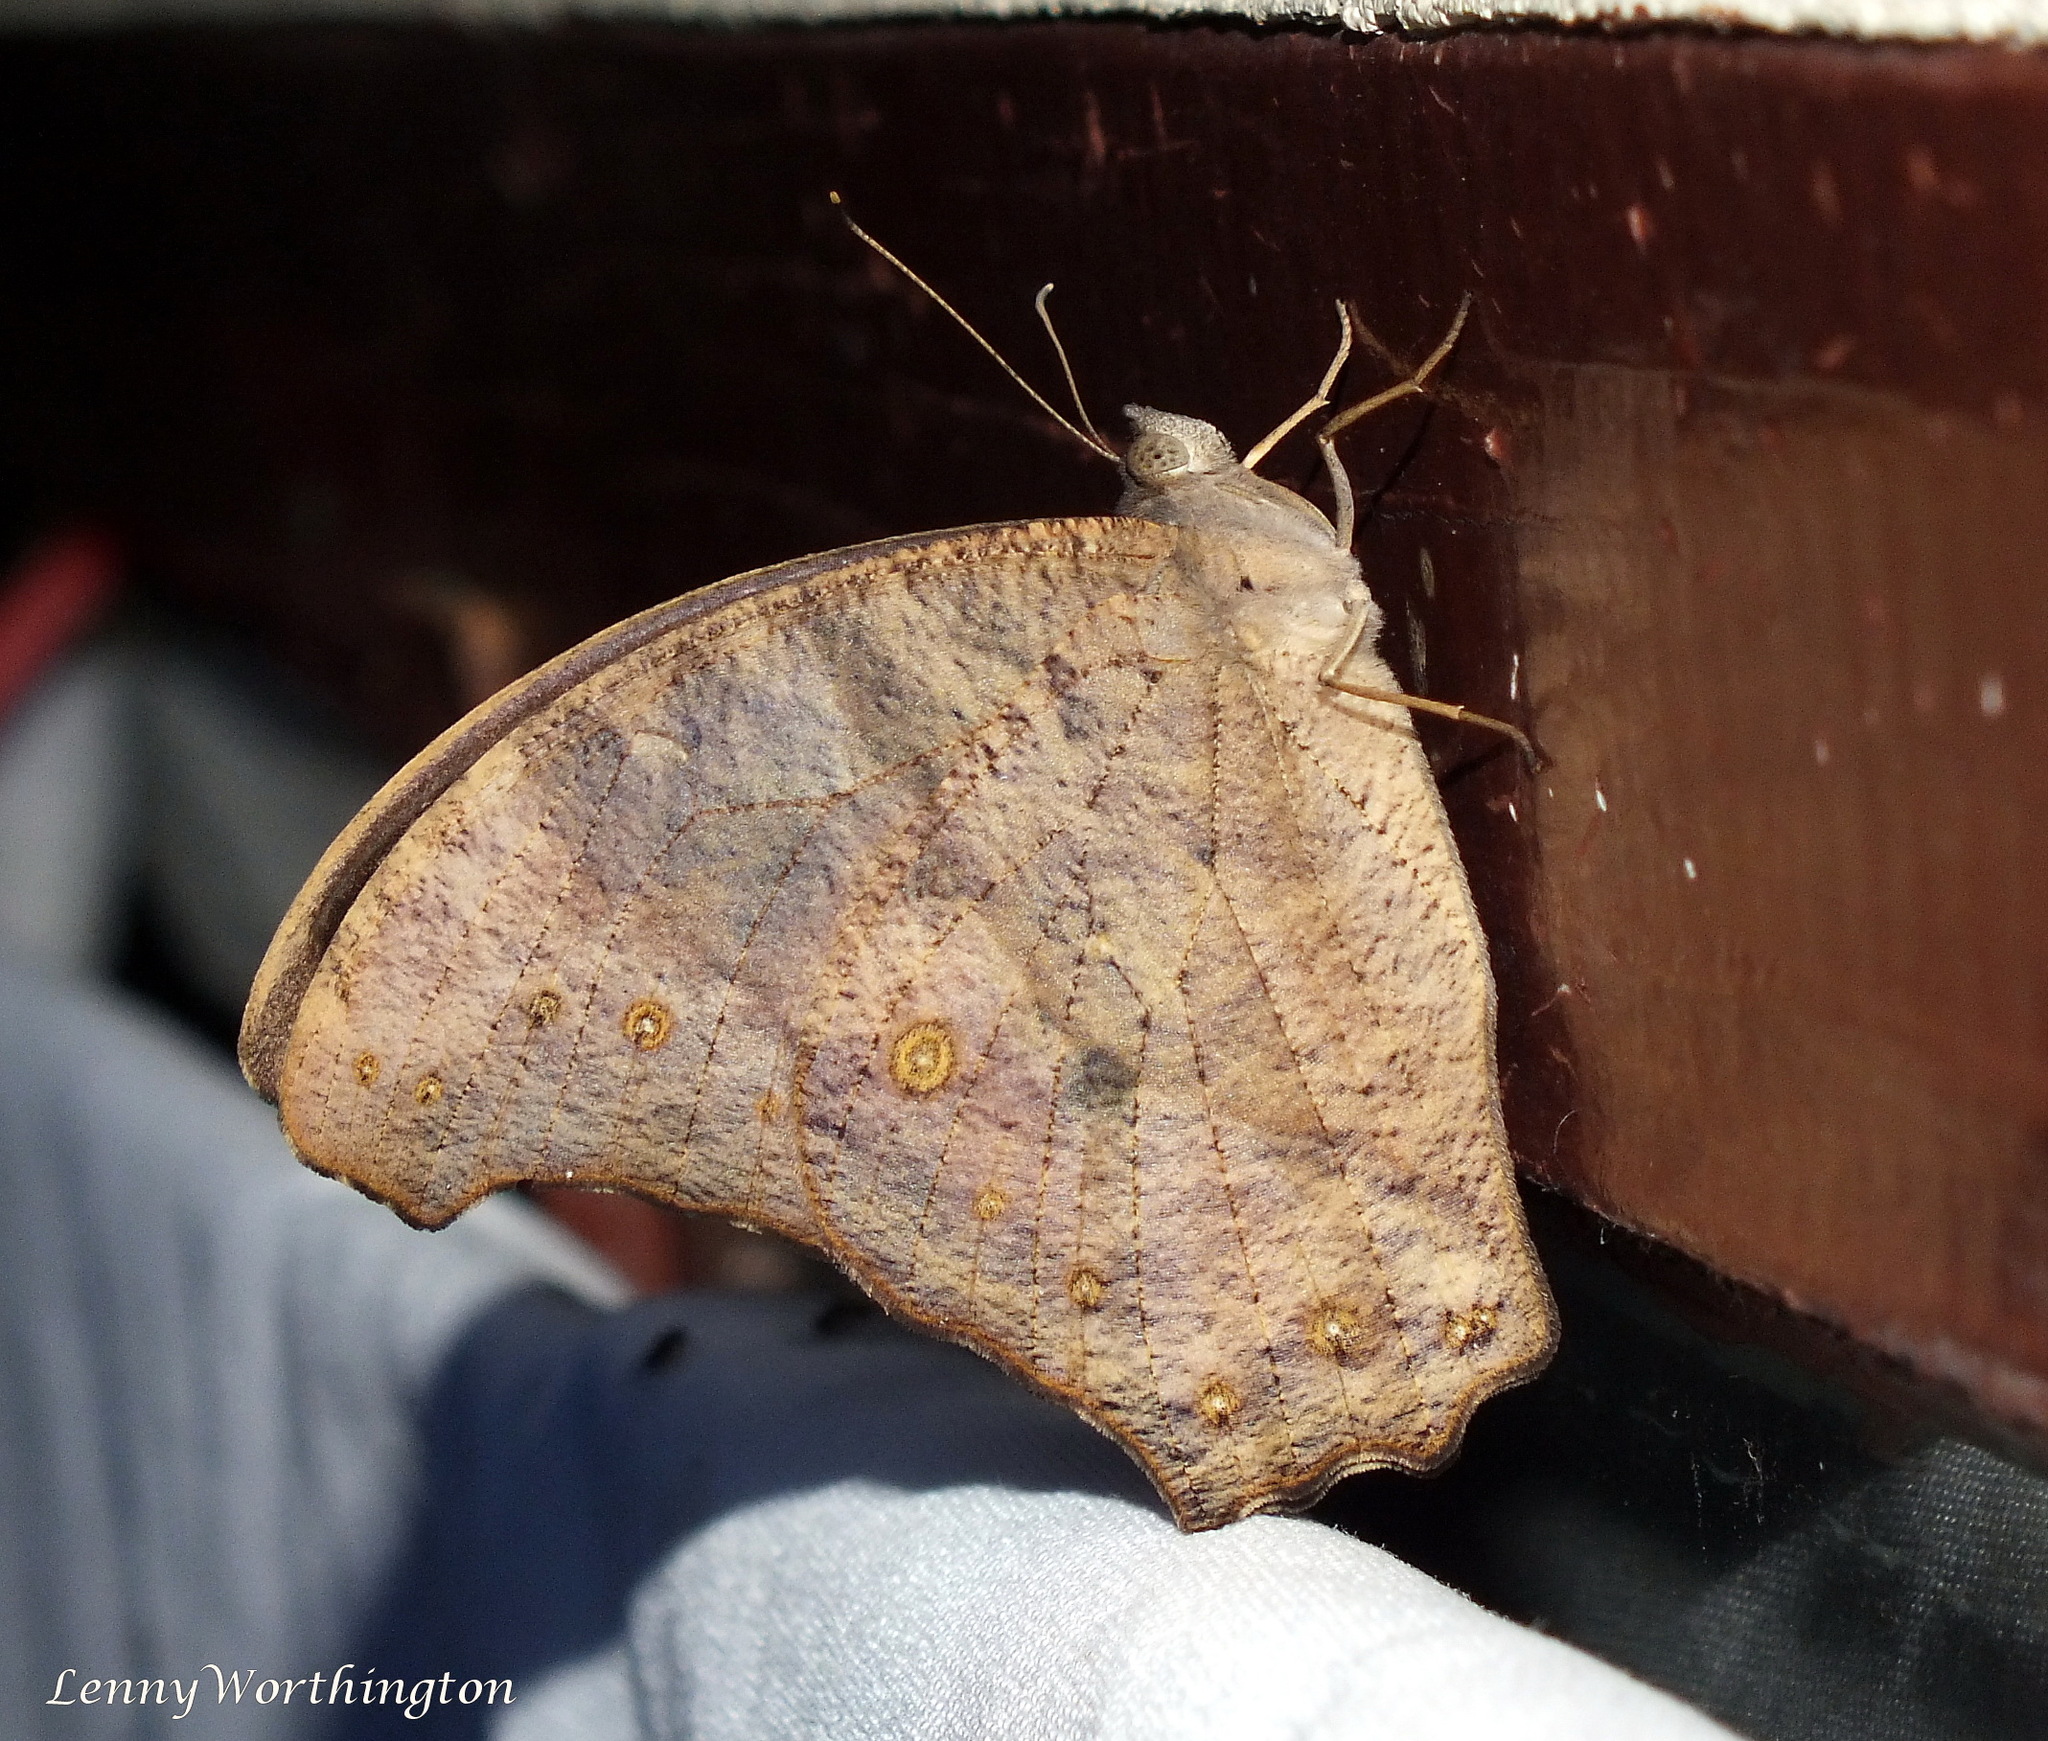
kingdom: Animalia
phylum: Arthropoda
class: Insecta
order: Lepidoptera
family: Nymphalidae
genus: Melanitis
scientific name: Melanitis leda
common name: Twilight brown
